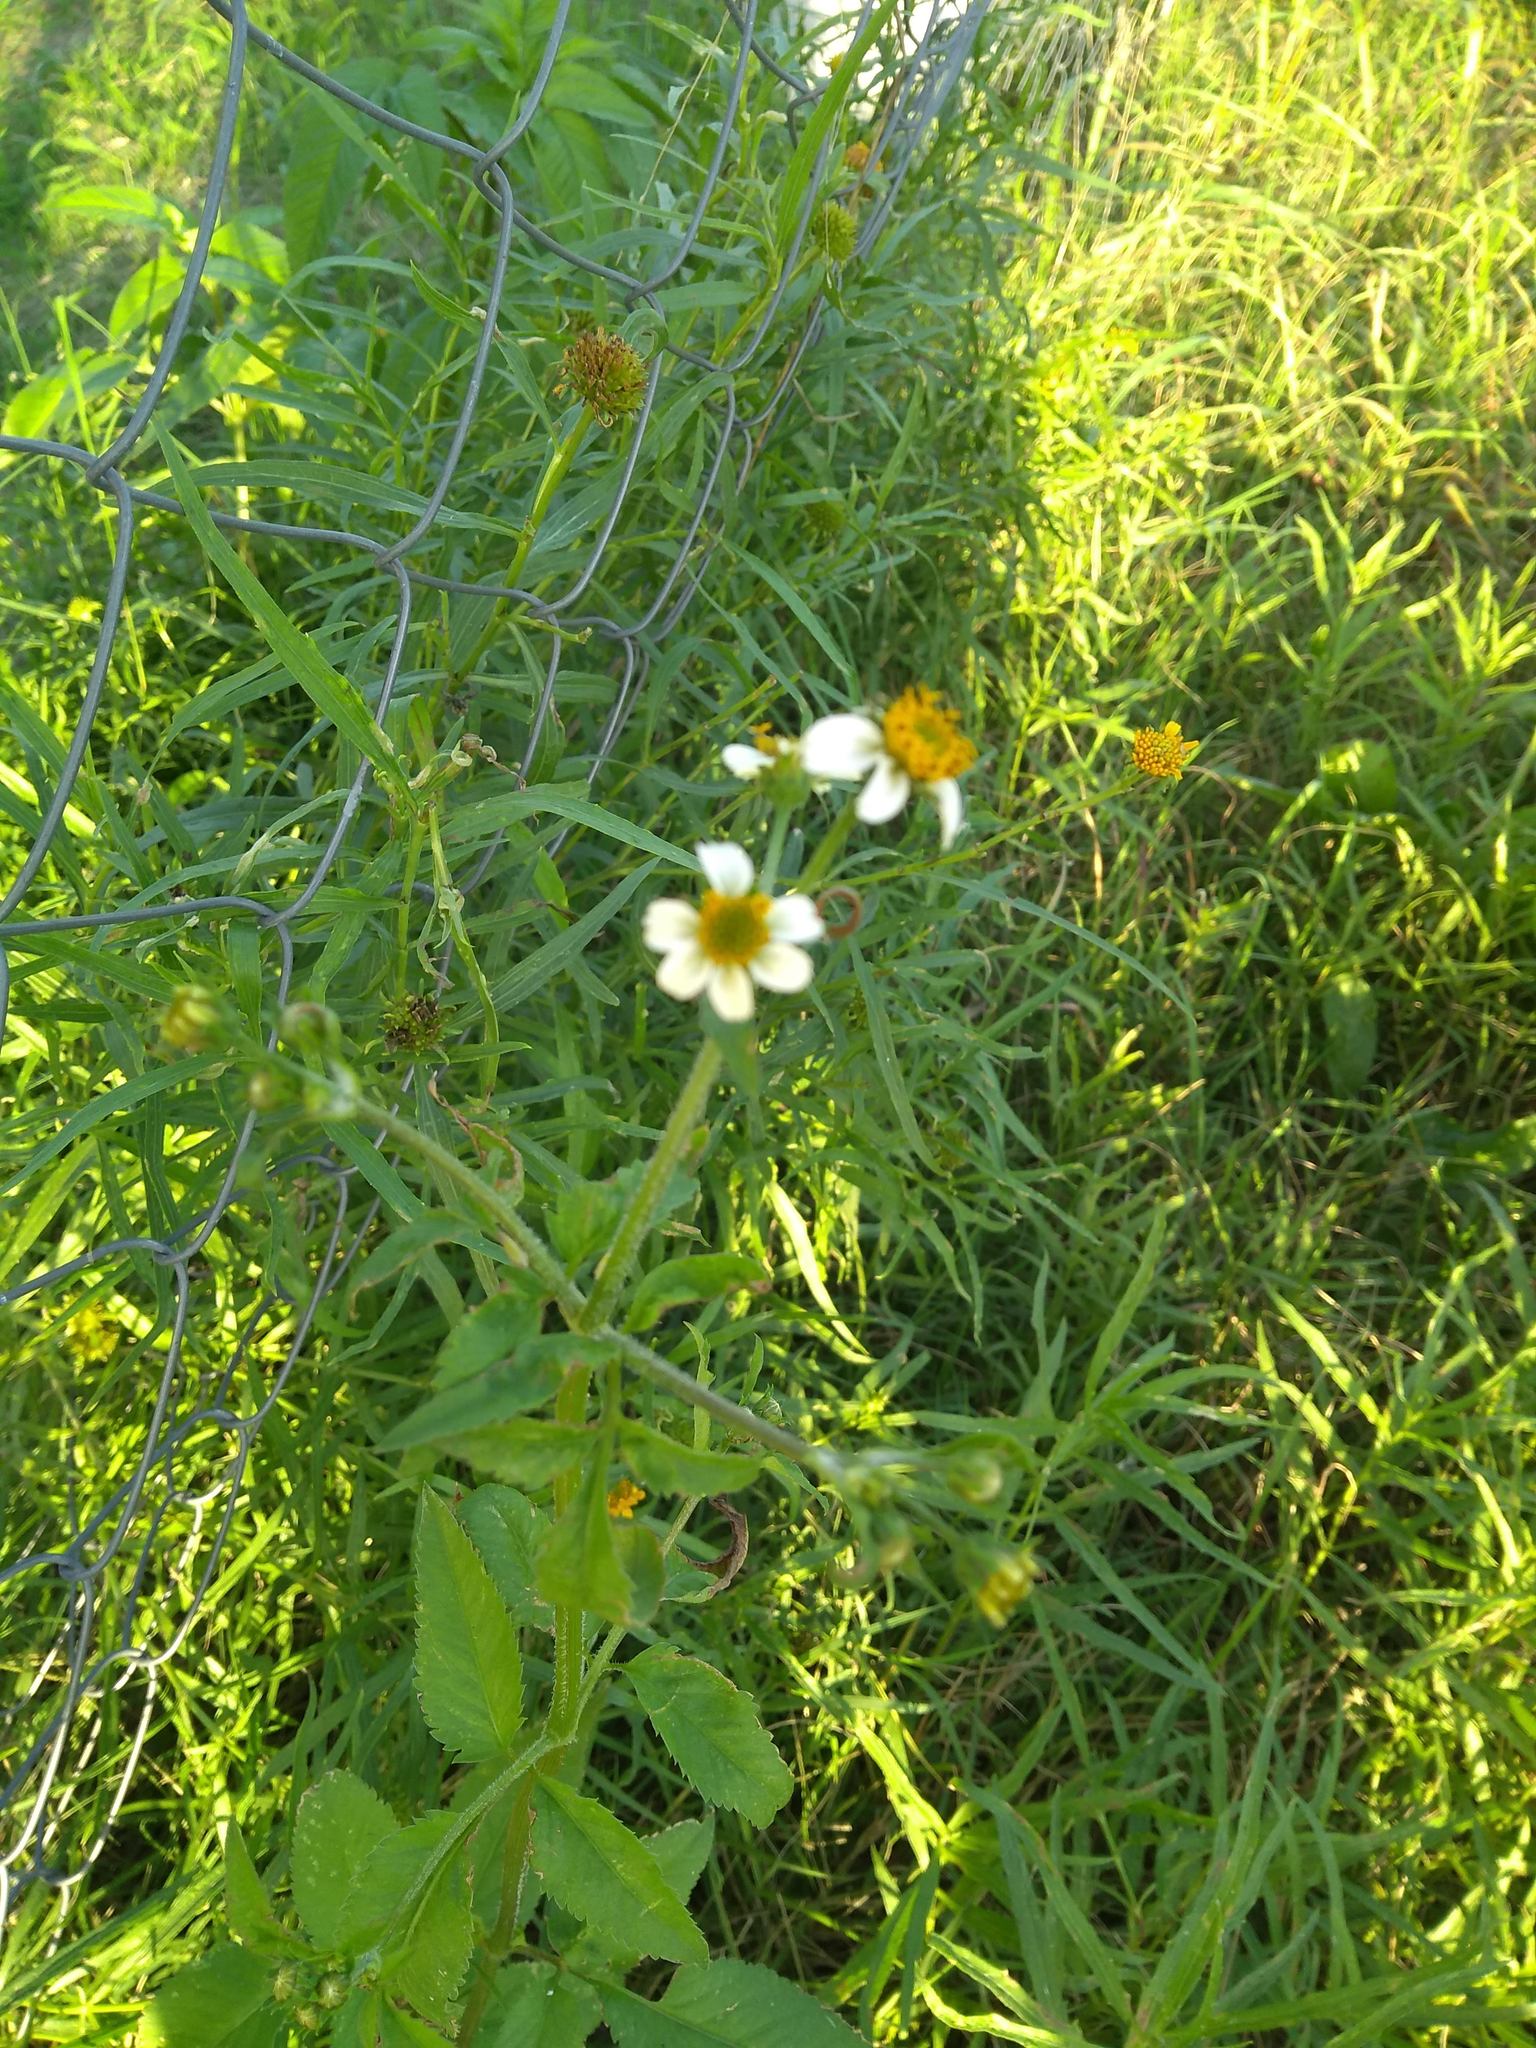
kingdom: Plantae
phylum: Tracheophyta
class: Magnoliopsida
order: Asterales
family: Asteraceae
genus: Bidens
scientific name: Bidens pilosa
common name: Black-jack
